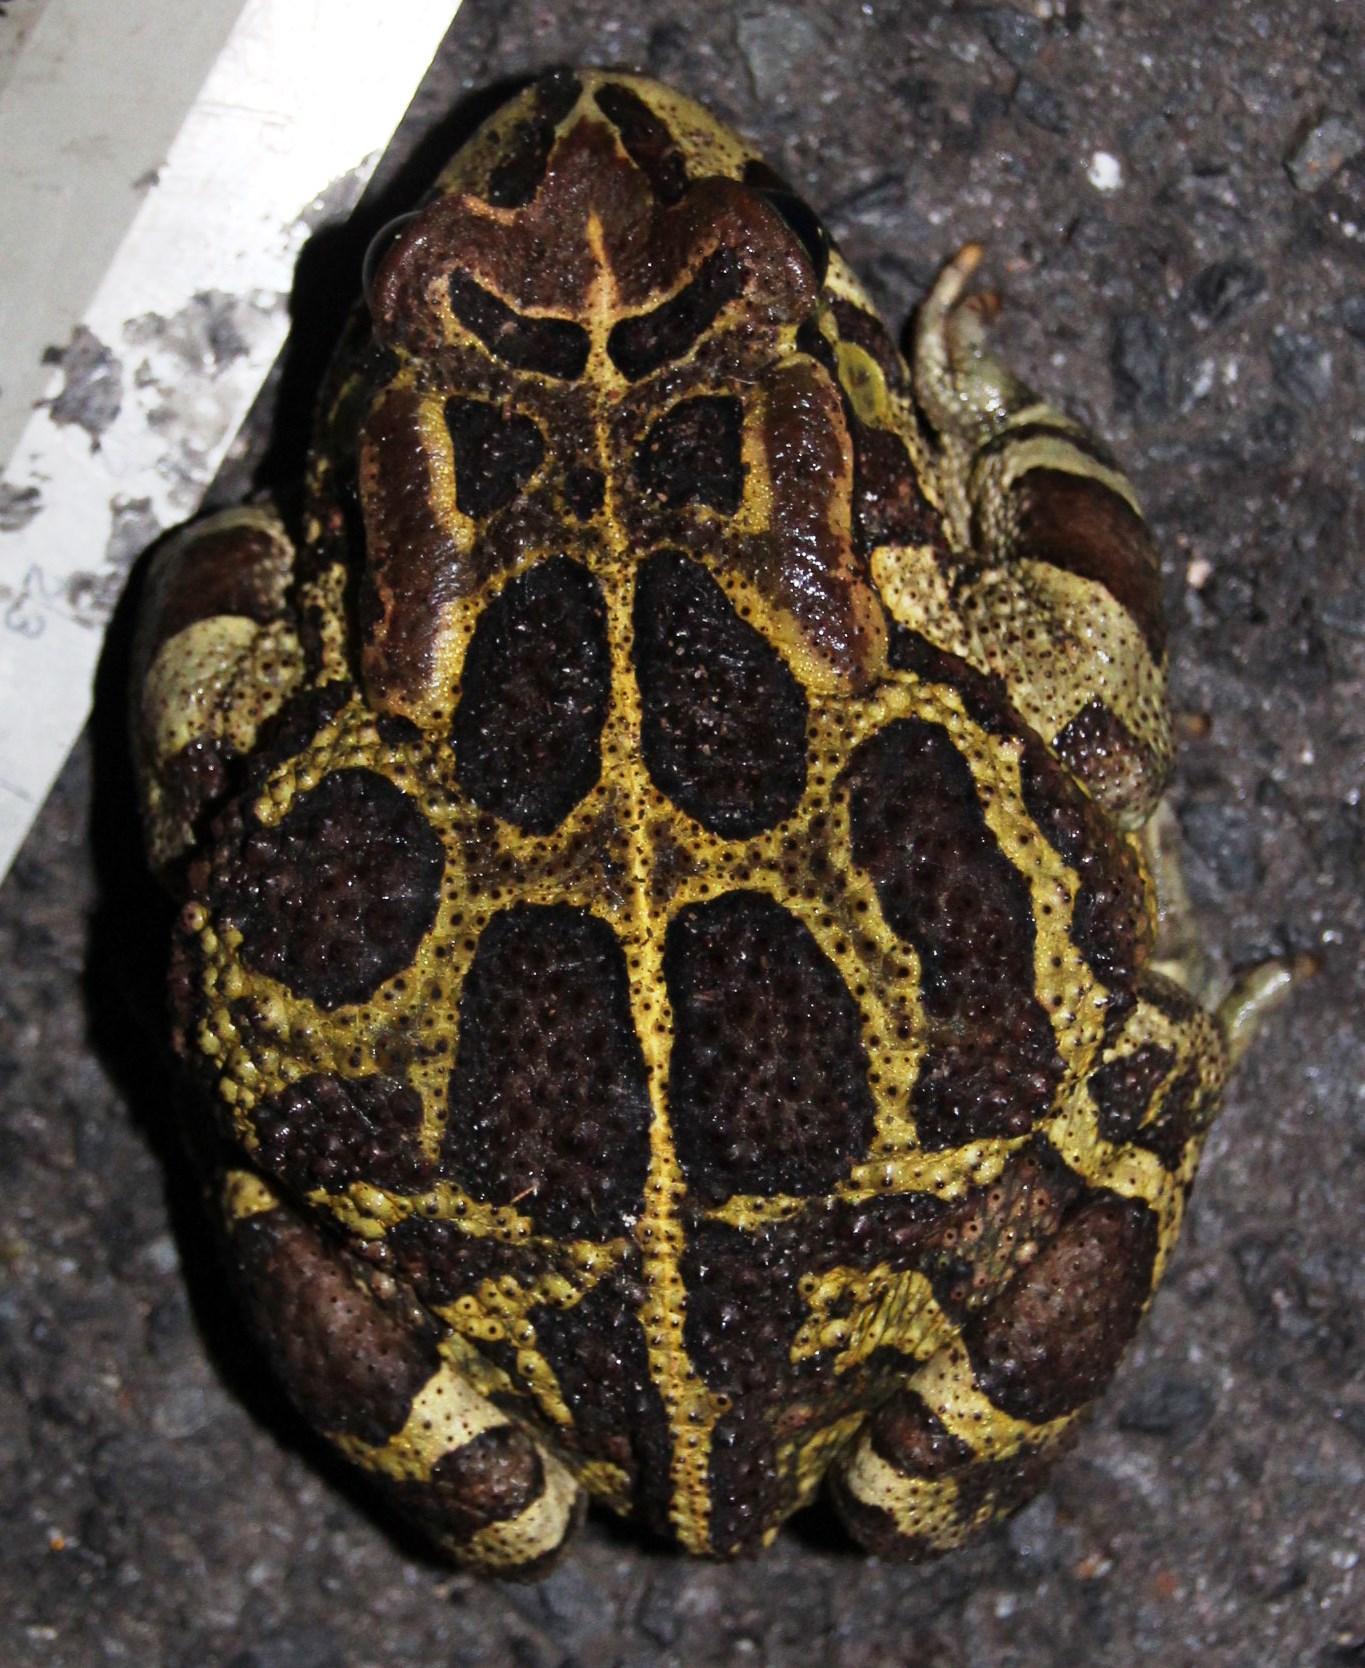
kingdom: Animalia
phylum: Chordata
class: Amphibia
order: Anura
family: Bufonidae
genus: Sclerophrys
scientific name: Sclerophrys pantherina
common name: Panther toad
